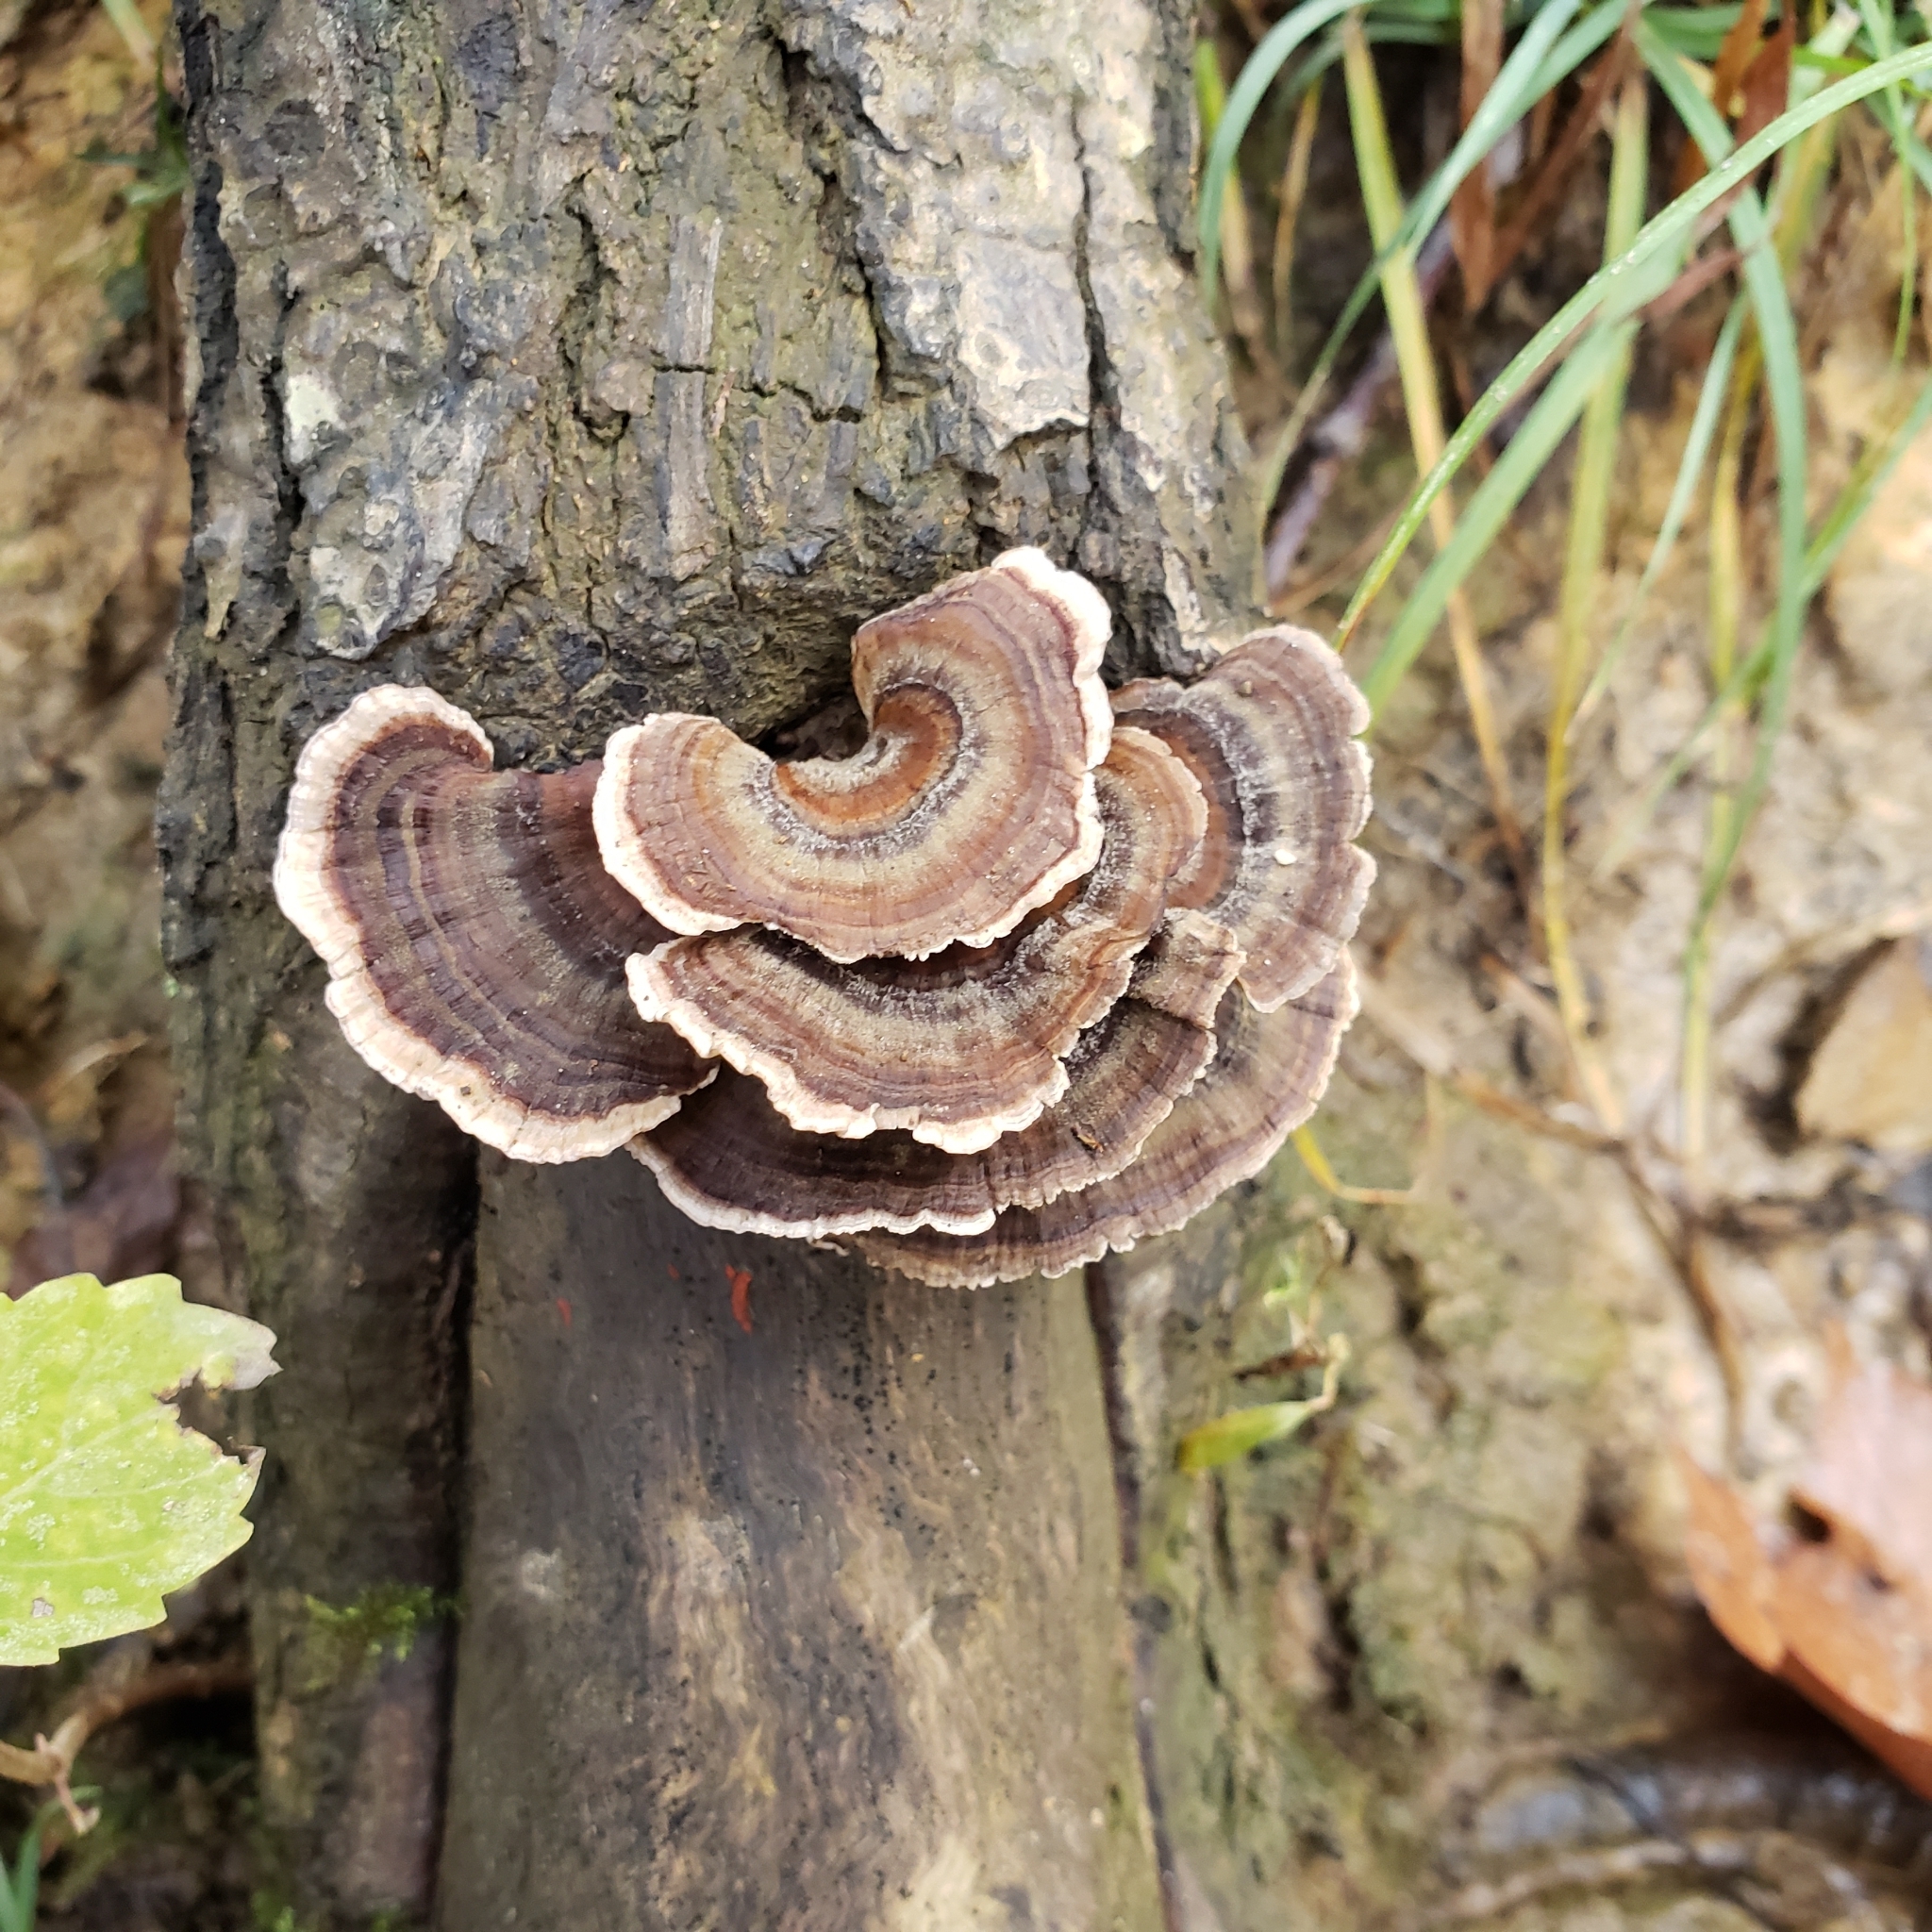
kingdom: Fungi
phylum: Basidiomycota
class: Agaricomycetes
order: Polyporales
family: Polyporaceae
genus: Trametes
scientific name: Trametes versicolor
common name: Turkeytail
